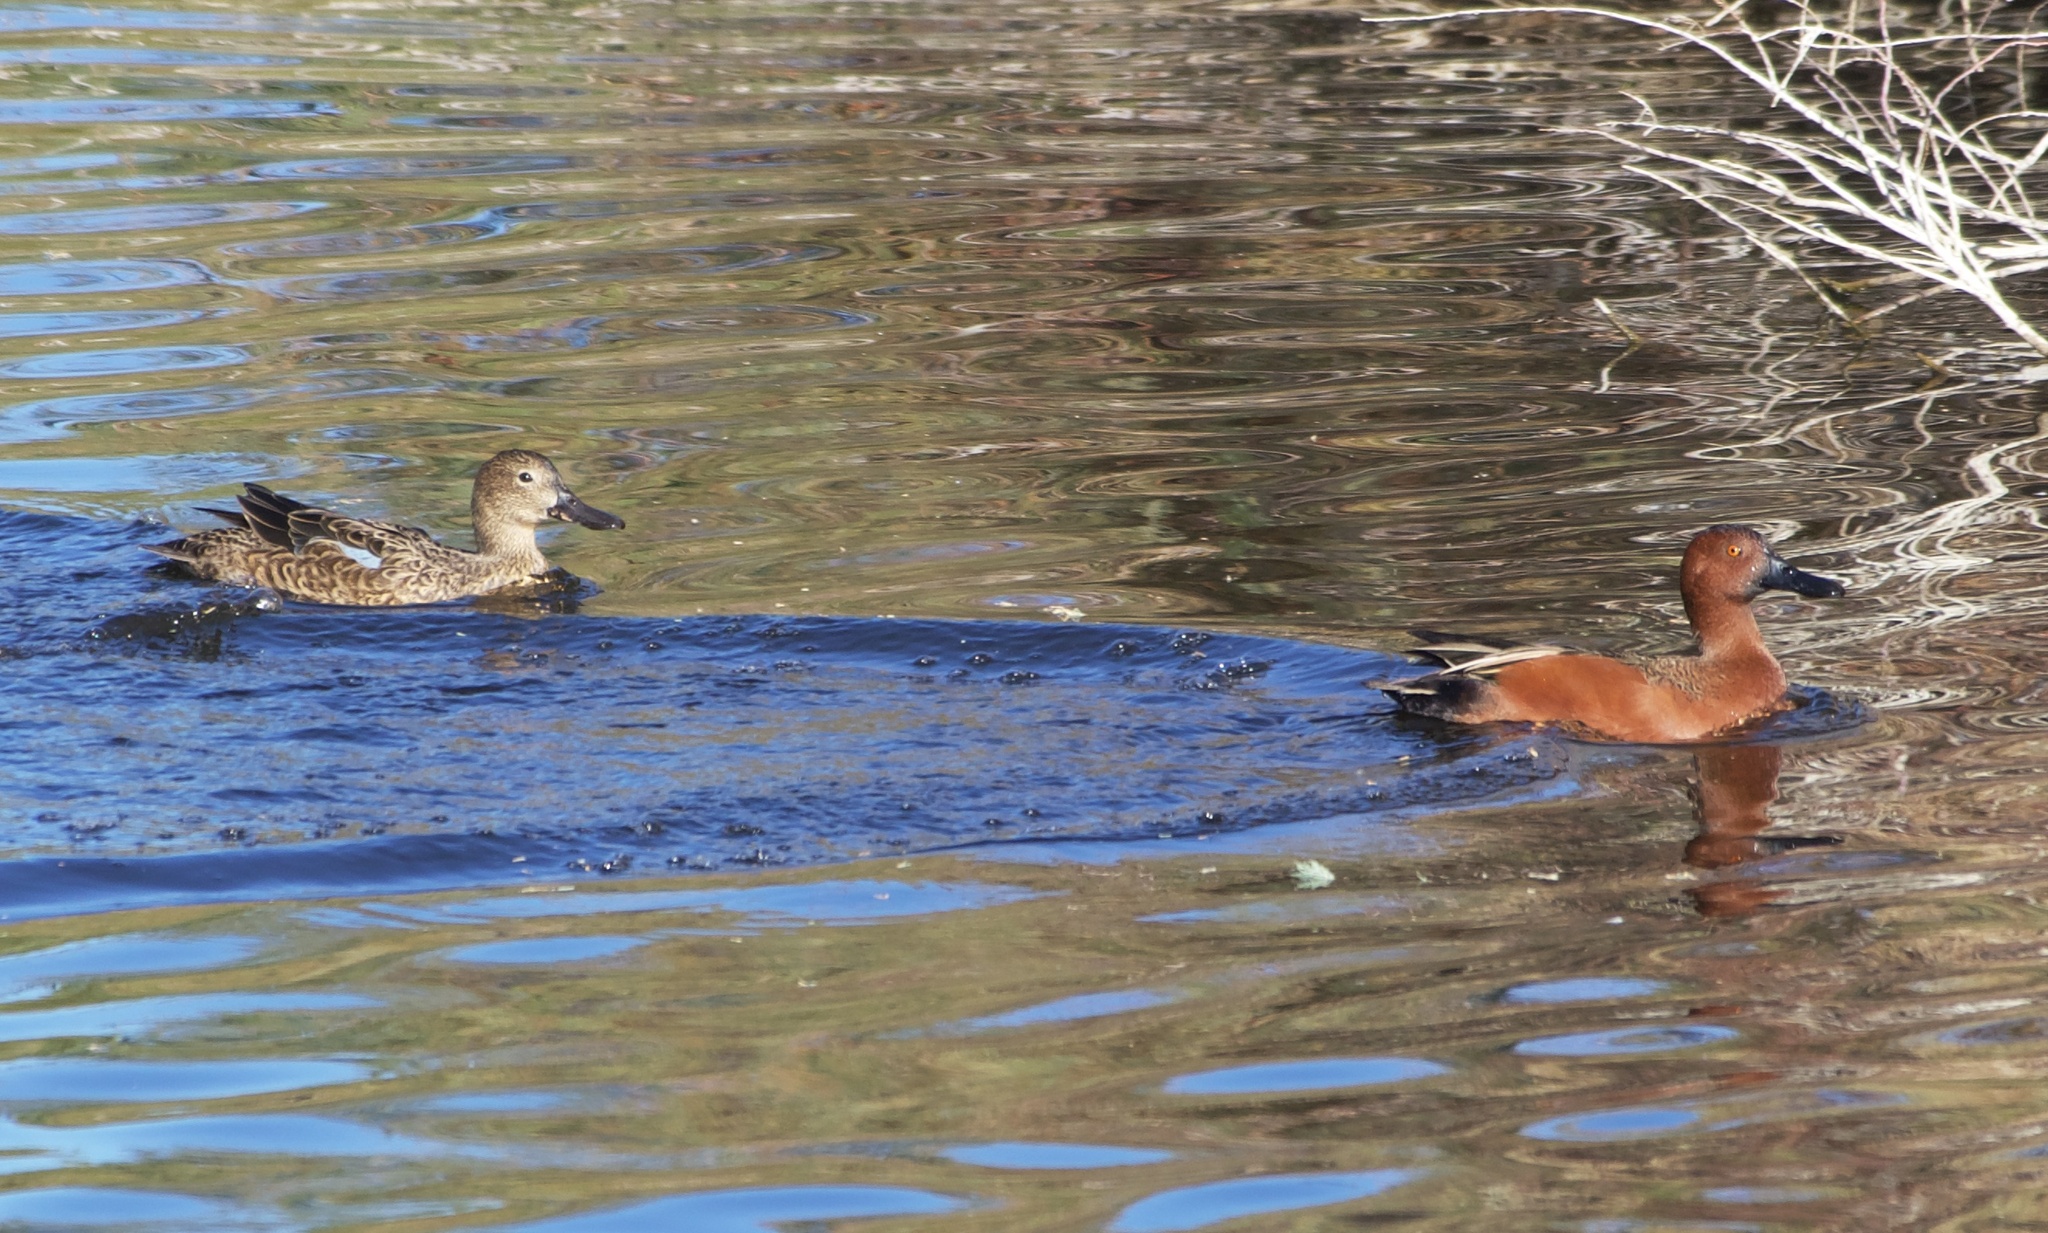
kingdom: Animalia
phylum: Chordata
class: Aves
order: Anseriformes
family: Anatidae
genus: Spatula
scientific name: Spatula cyanoptera
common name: Cinnamon teal
